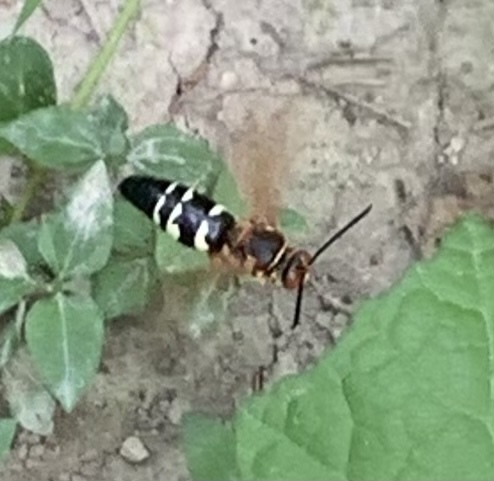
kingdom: Animalia
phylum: Arthropoda
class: Insecta
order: Hymenoptera
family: Crabronidae
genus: Sphecius
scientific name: Sphecius speciosus
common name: Cicada killer
